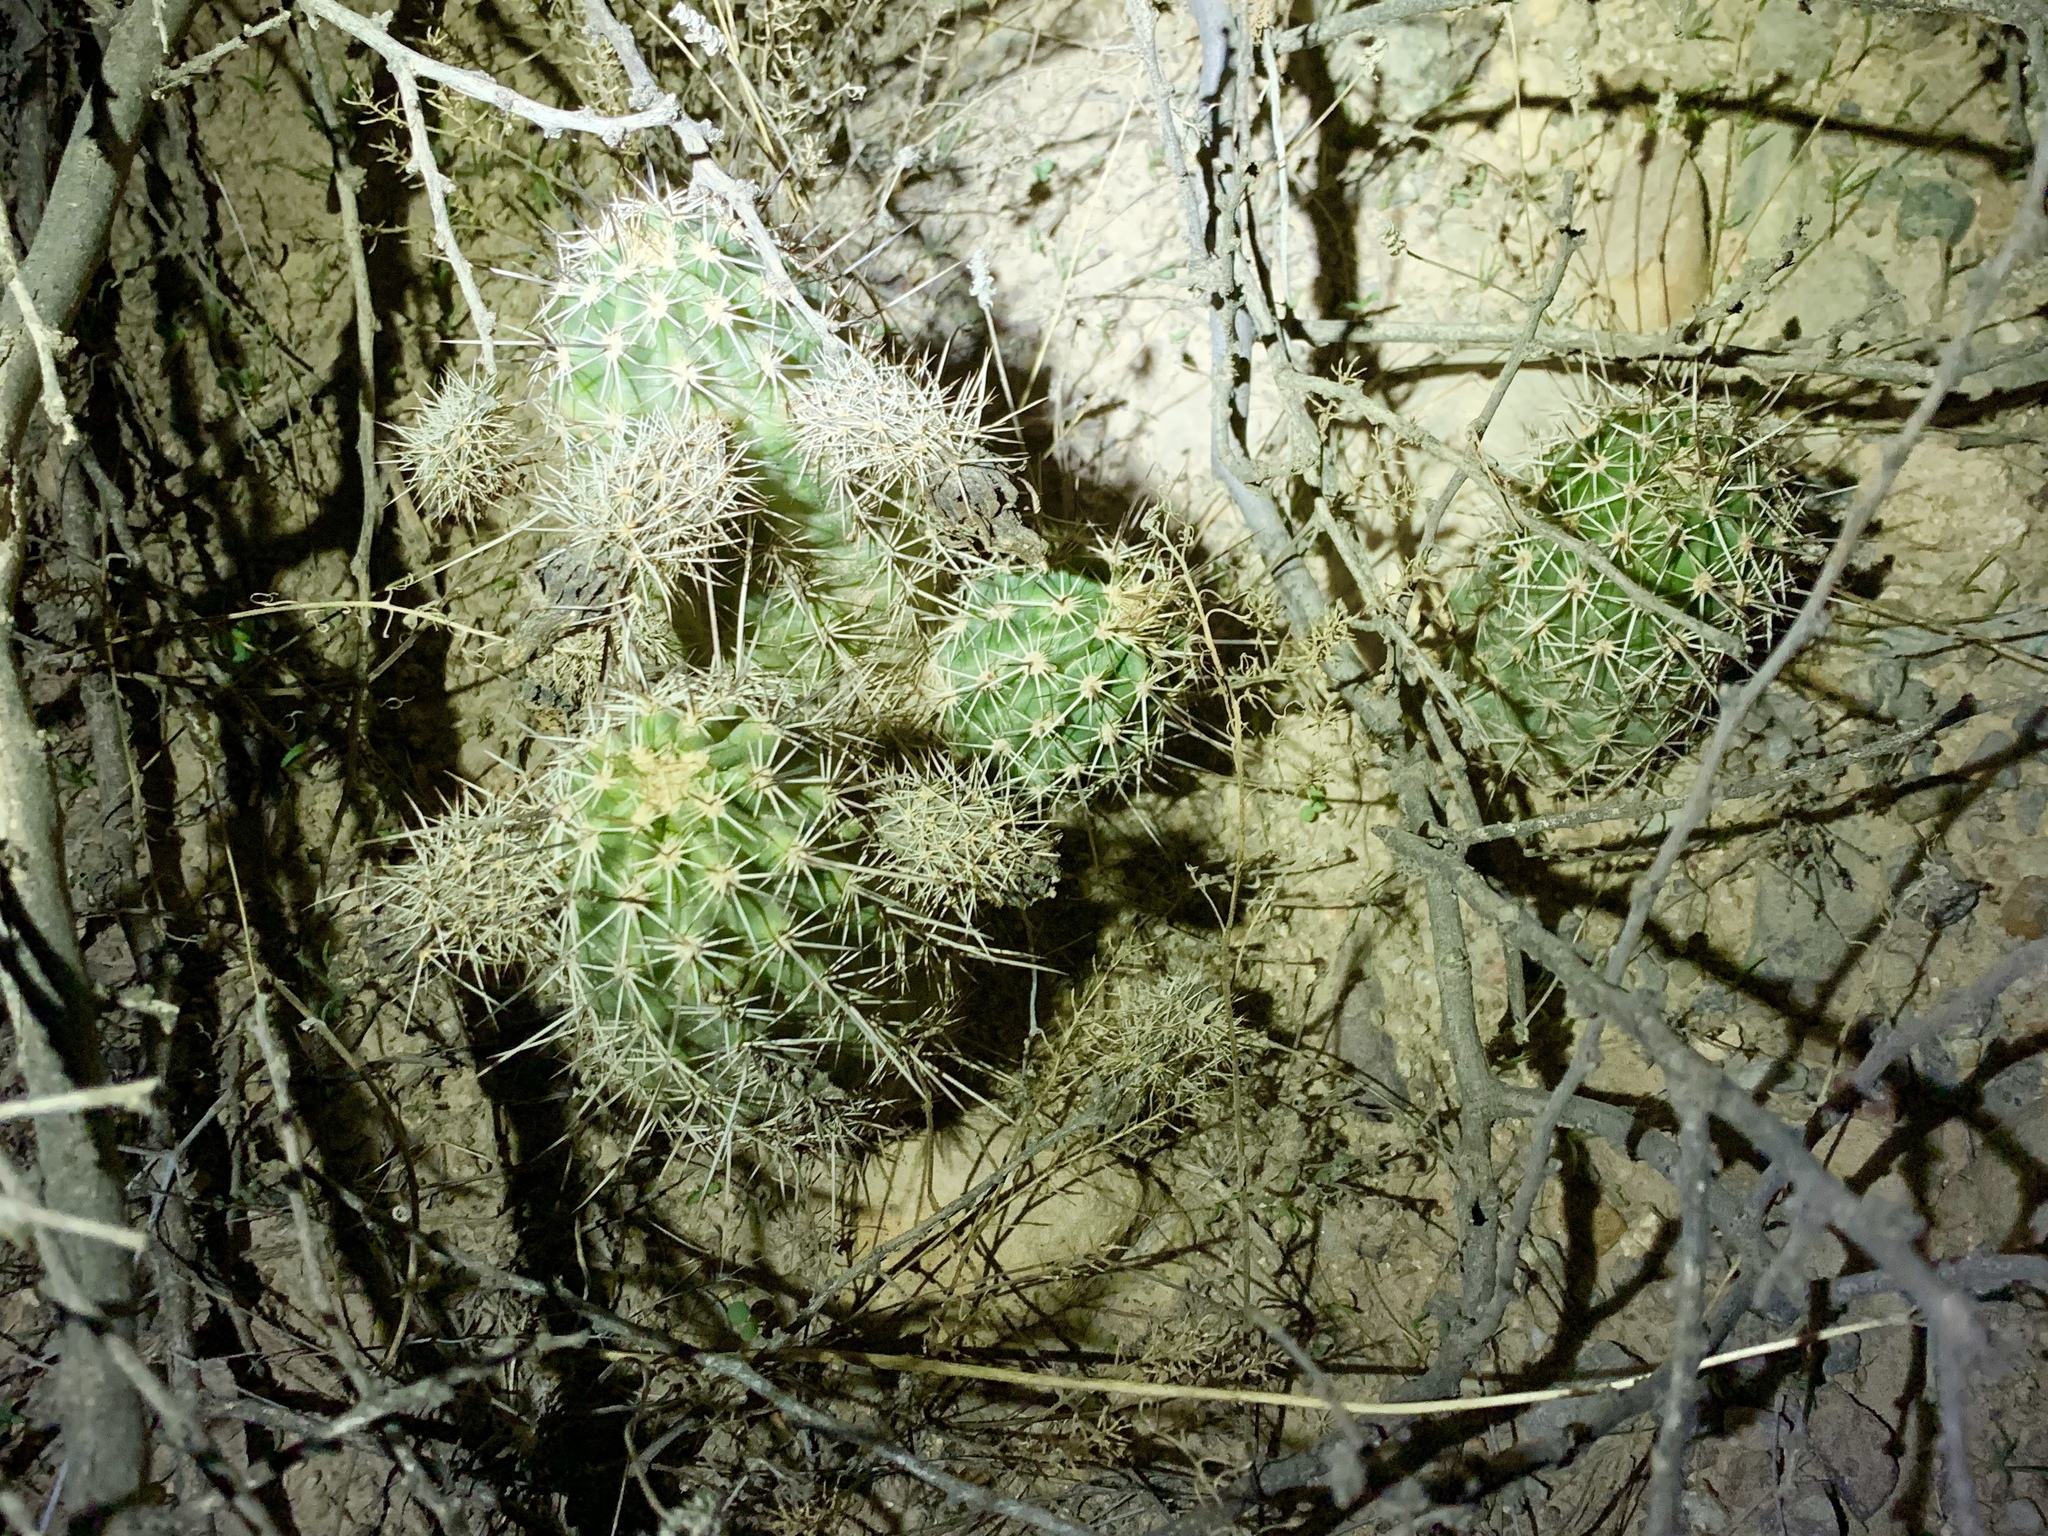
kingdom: Plantae
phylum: Tracheophyta
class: Magnoliopsida
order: Caryophyllales
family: Cactaceae
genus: Echinocereus
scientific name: Echinocereus fasciculatus
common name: Bundle hedgehog
